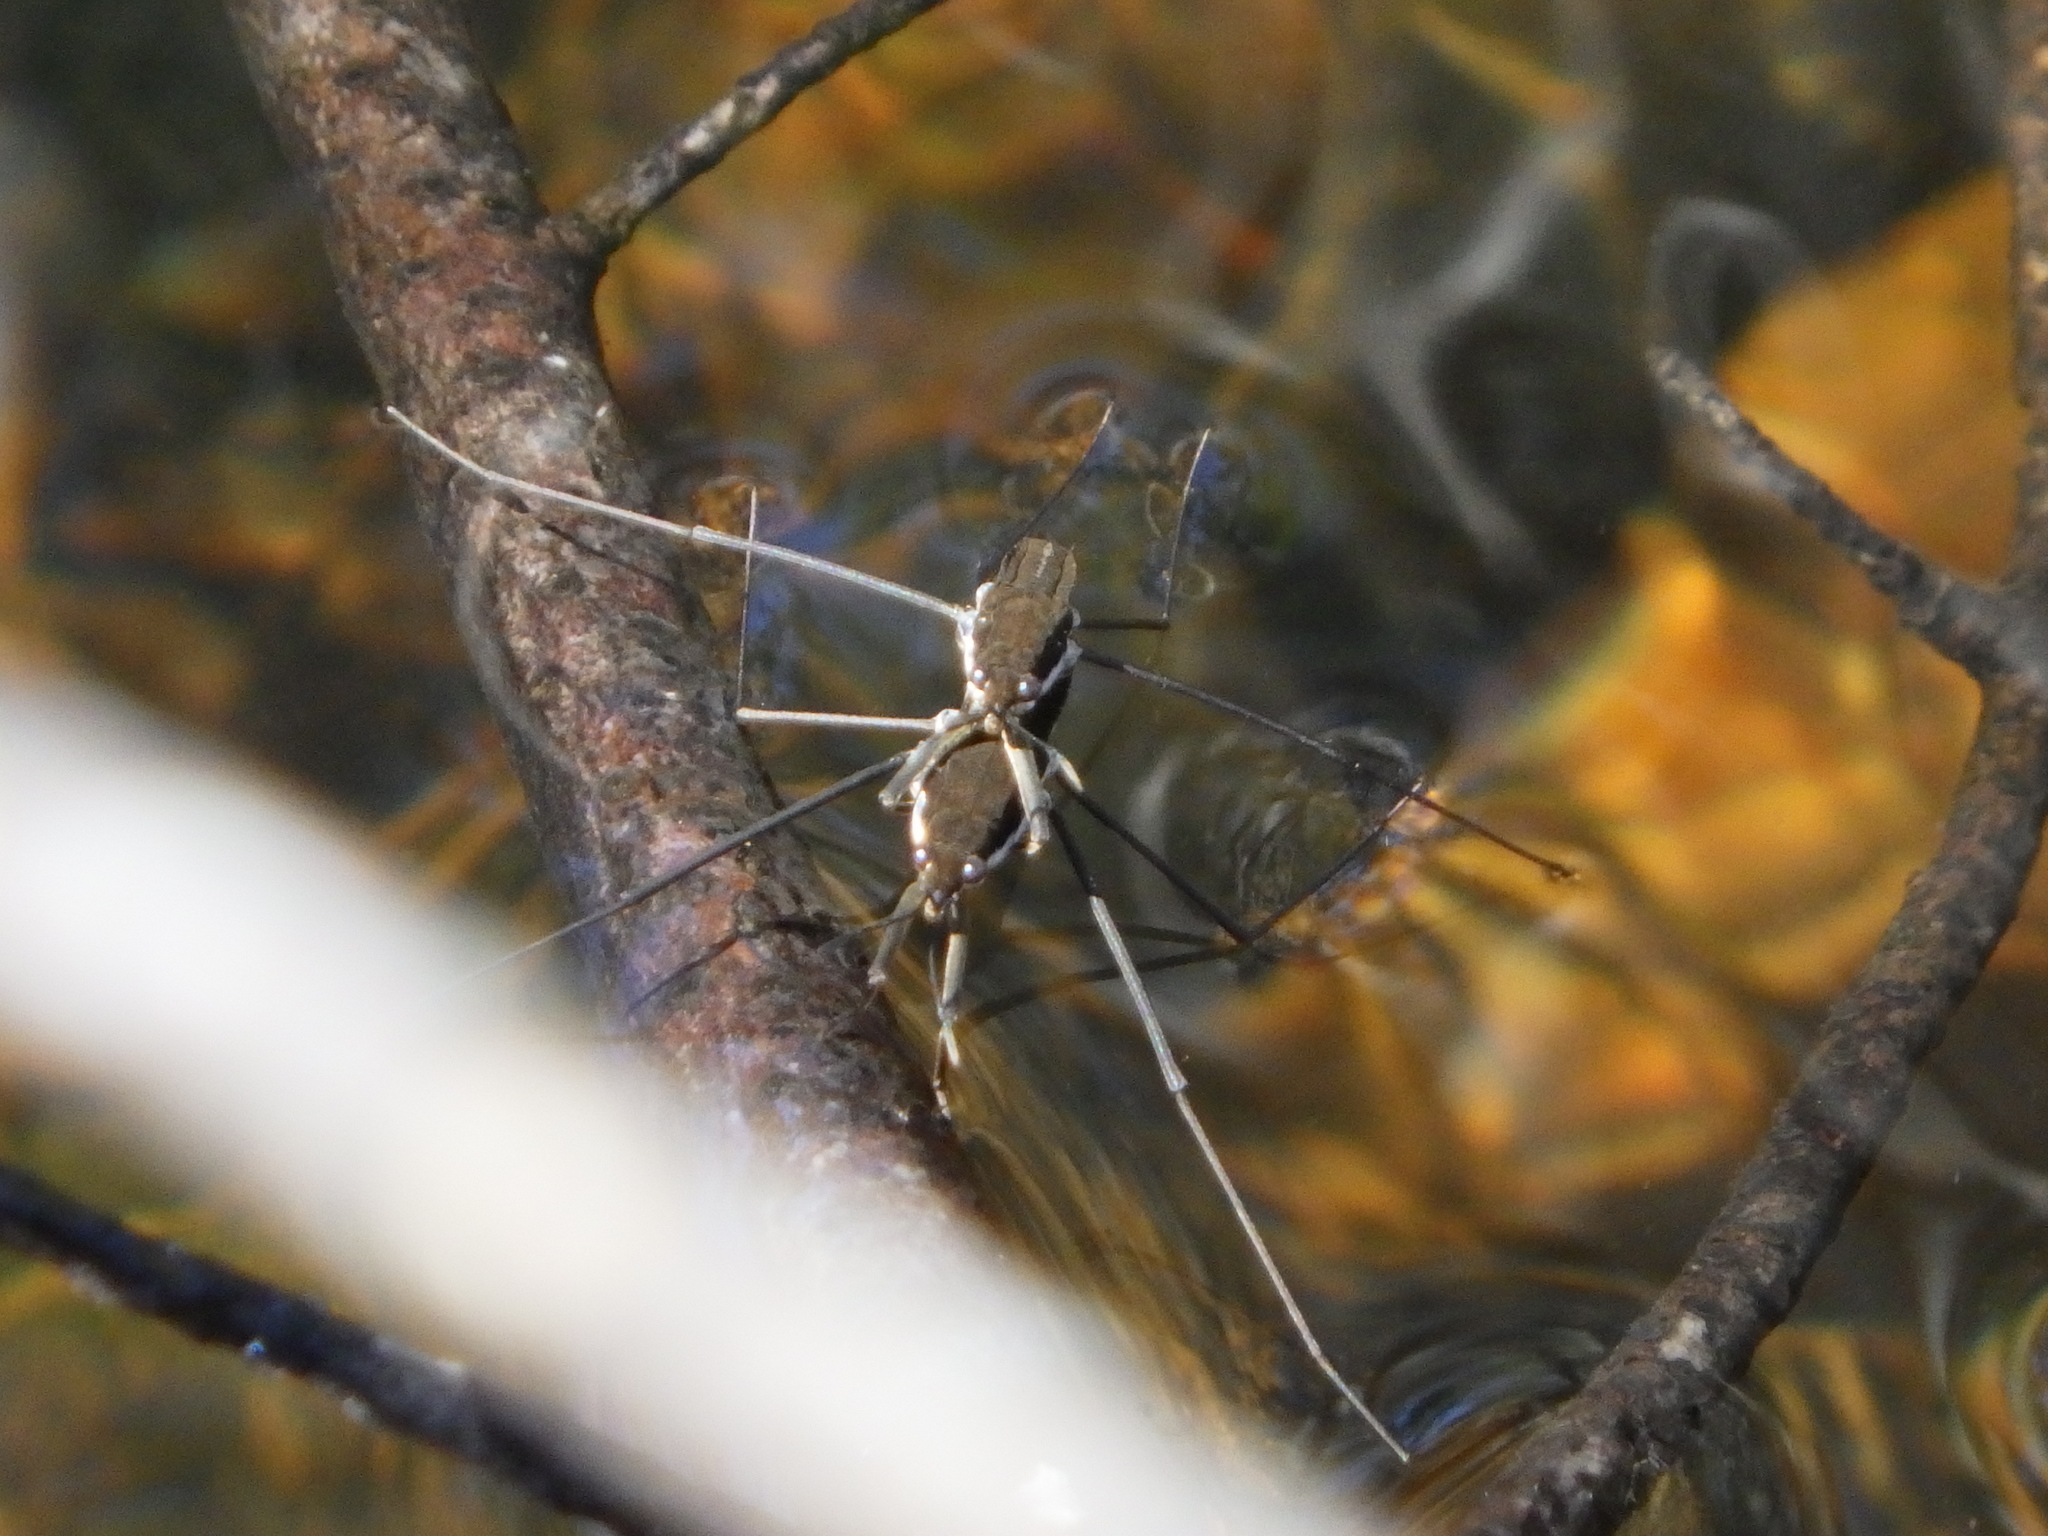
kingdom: Animalia
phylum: Arthropoda
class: Insecta
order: Hemiptera
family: Gerridae
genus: Aquarius
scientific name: Aquarius remigis
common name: Common water strider
